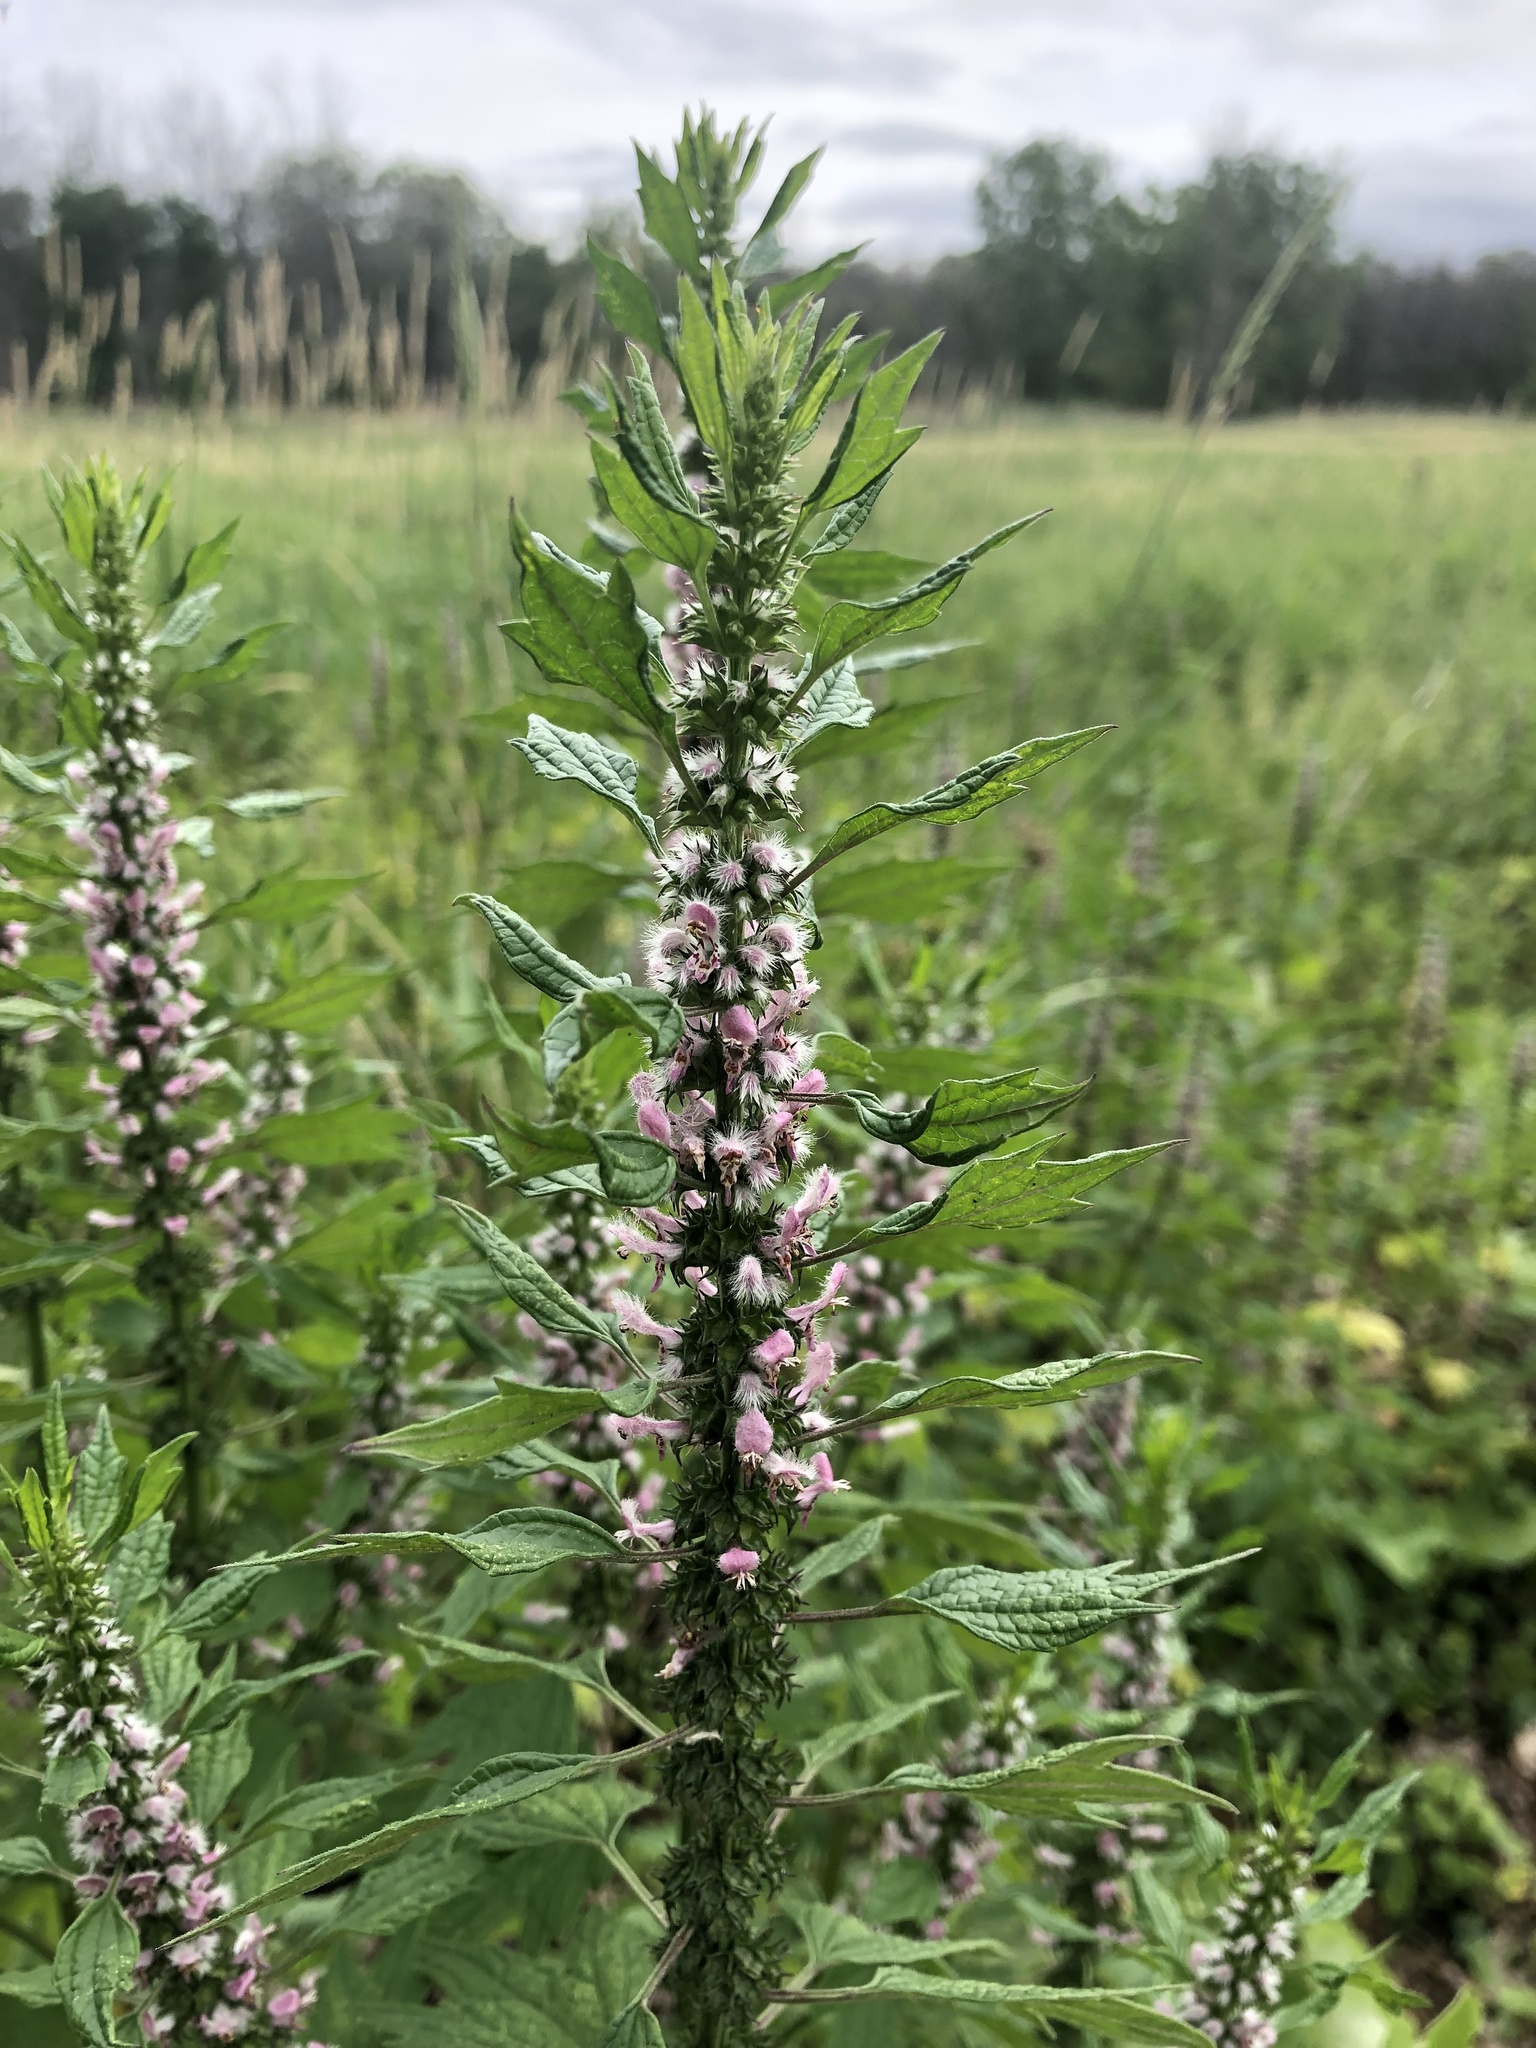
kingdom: Plantae
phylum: Tracheophyta
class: Magnoliopsida
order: Lamiales
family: Lamiaceae
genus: Leonurus
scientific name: Leonurus cardiaca
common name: Motherwort
